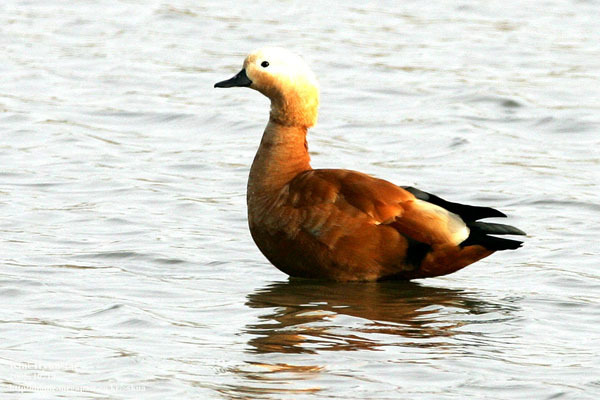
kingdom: Animalia
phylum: Chordata
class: Aves
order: Anseriformes
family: Anatidae
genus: Tadorna
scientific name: Tadorna ferruginea
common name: Ruddy shelduck
